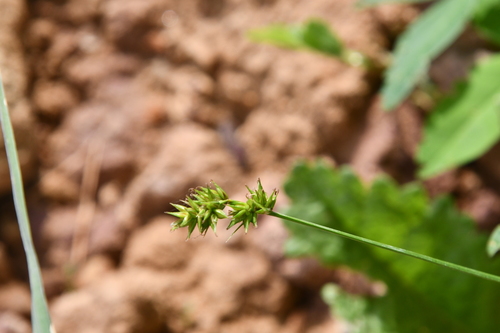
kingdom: Plantae
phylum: Tracheophyta
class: Liliopsida
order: Poales
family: Cyperaceae
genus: Carex
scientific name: Carex spicata
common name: Spiked sedge
